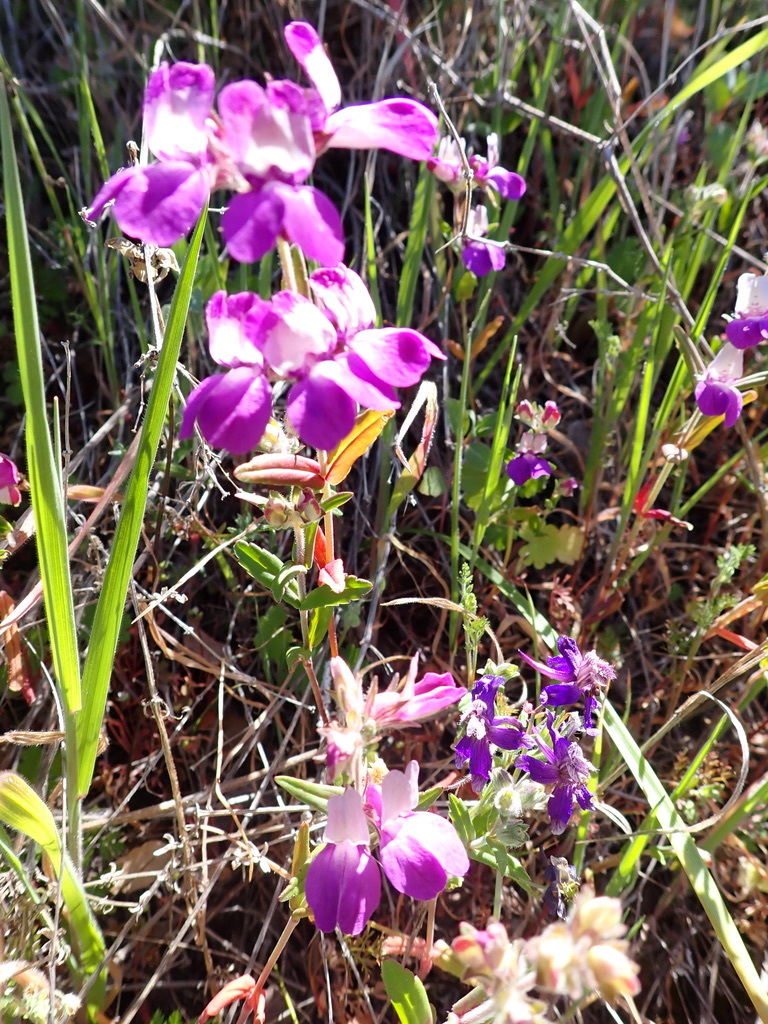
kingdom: Plantae
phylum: Tracheophyta
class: Magnoliopsida
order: Lamiales
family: Plantaginaceae
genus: Collinsia
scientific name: Collinsia heterophylla
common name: Chinese-houses
